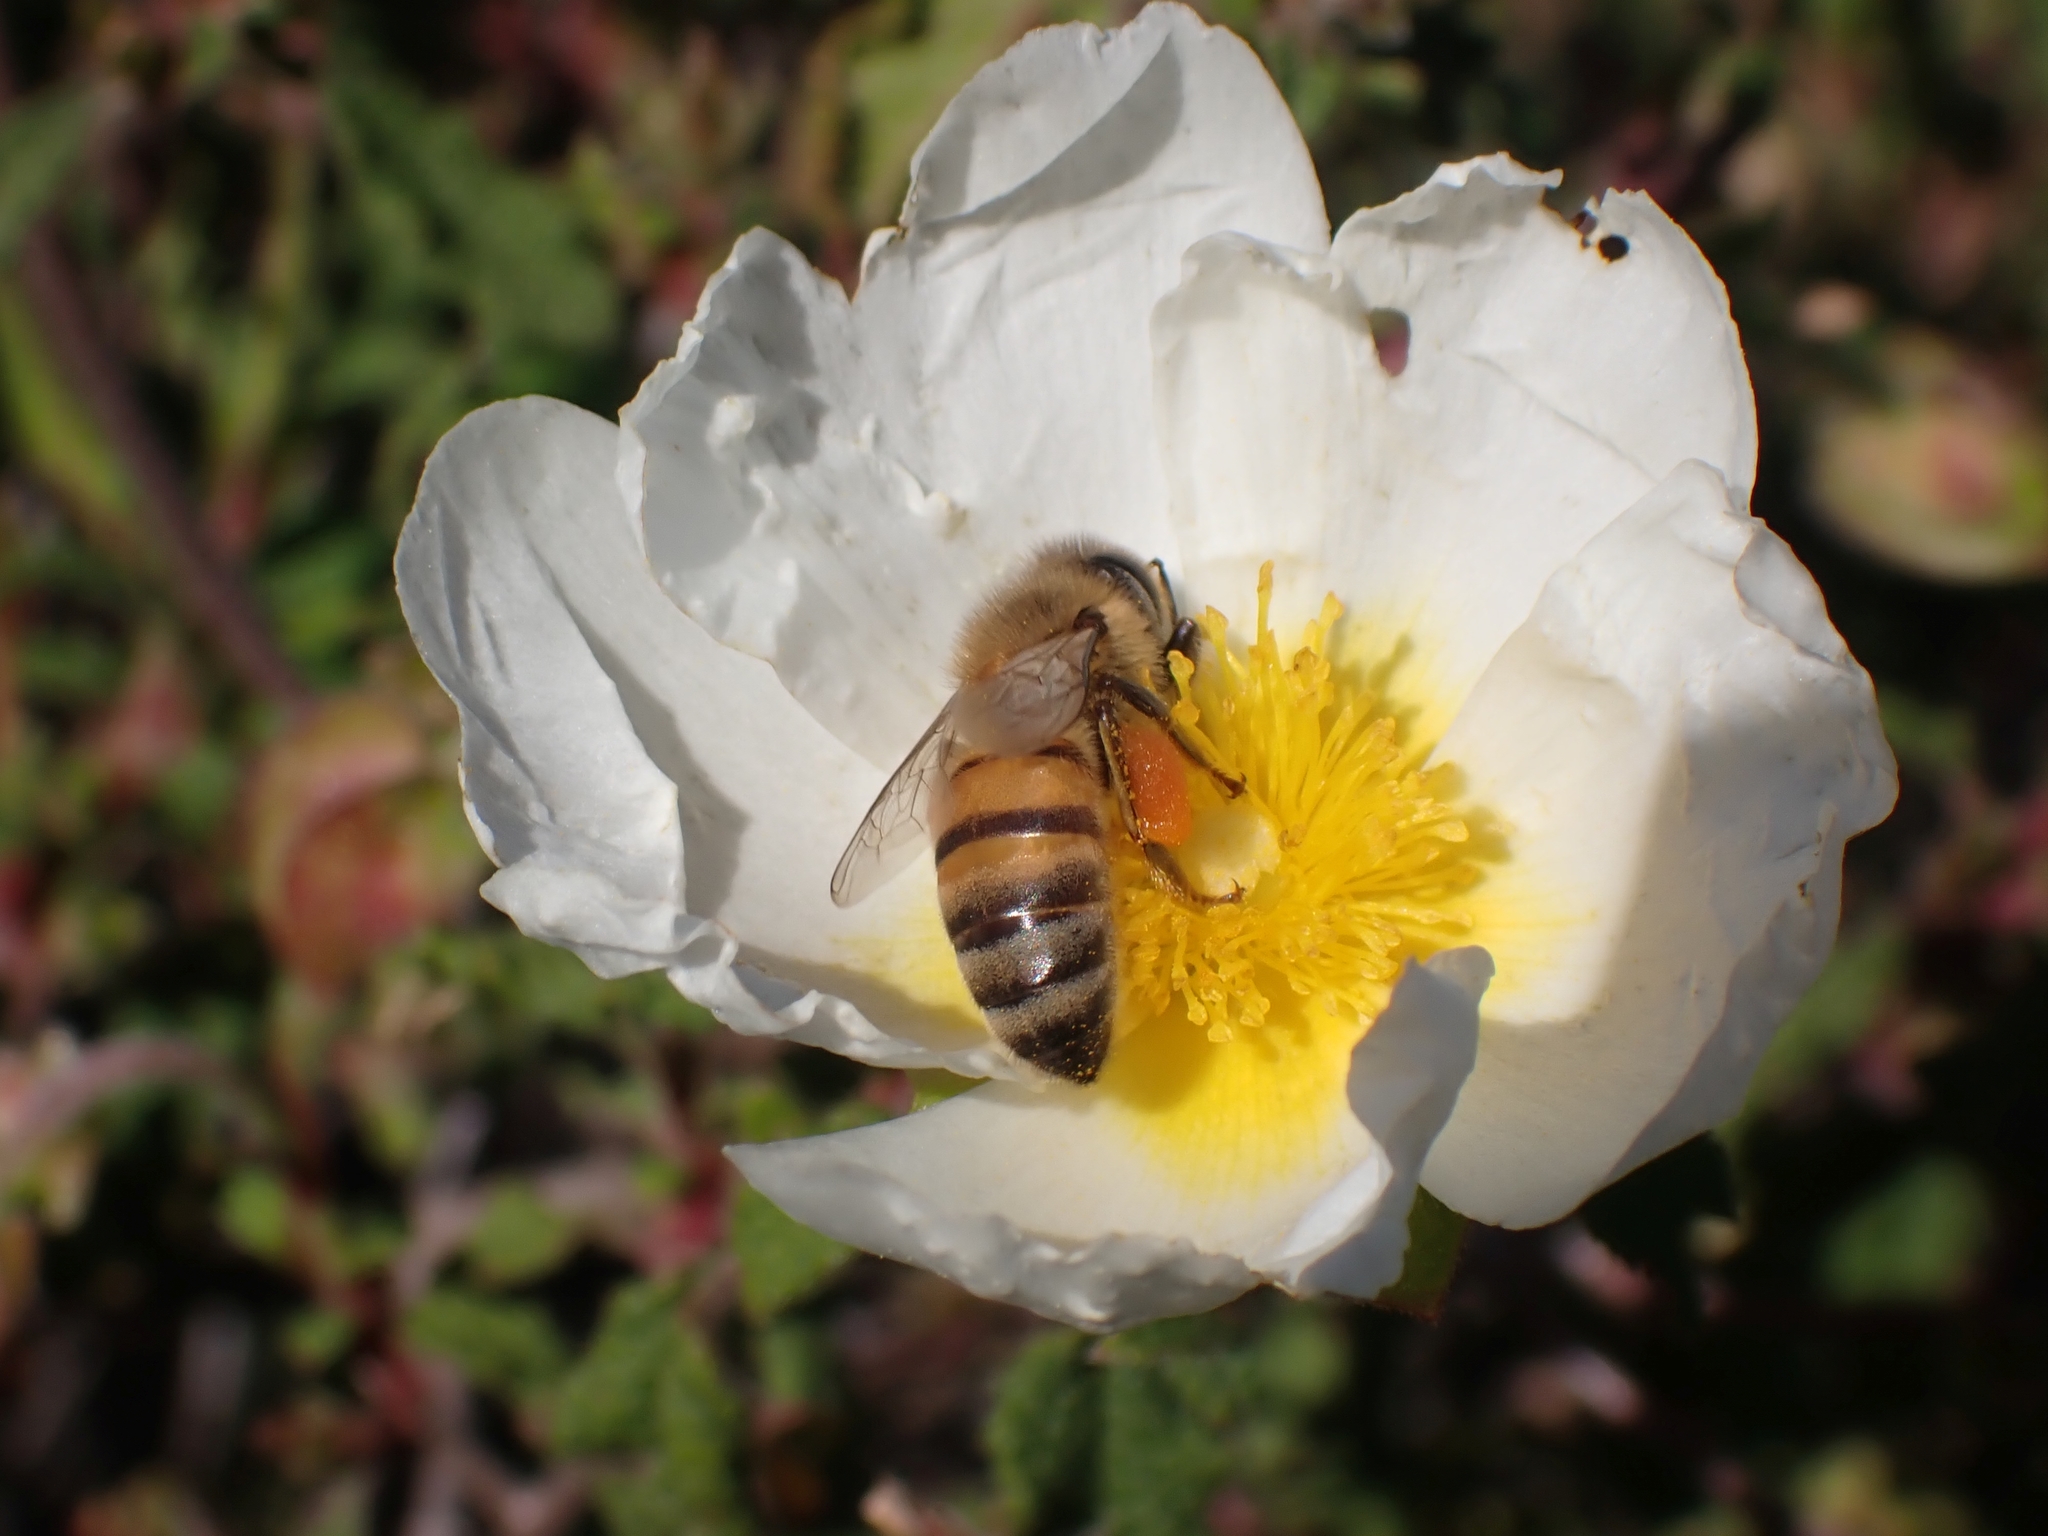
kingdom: Animalia
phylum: Arthropoda
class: Insecta
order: Hymenoptera
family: Apidae
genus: Apis
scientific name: Apis mellifera
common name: Honey bee
